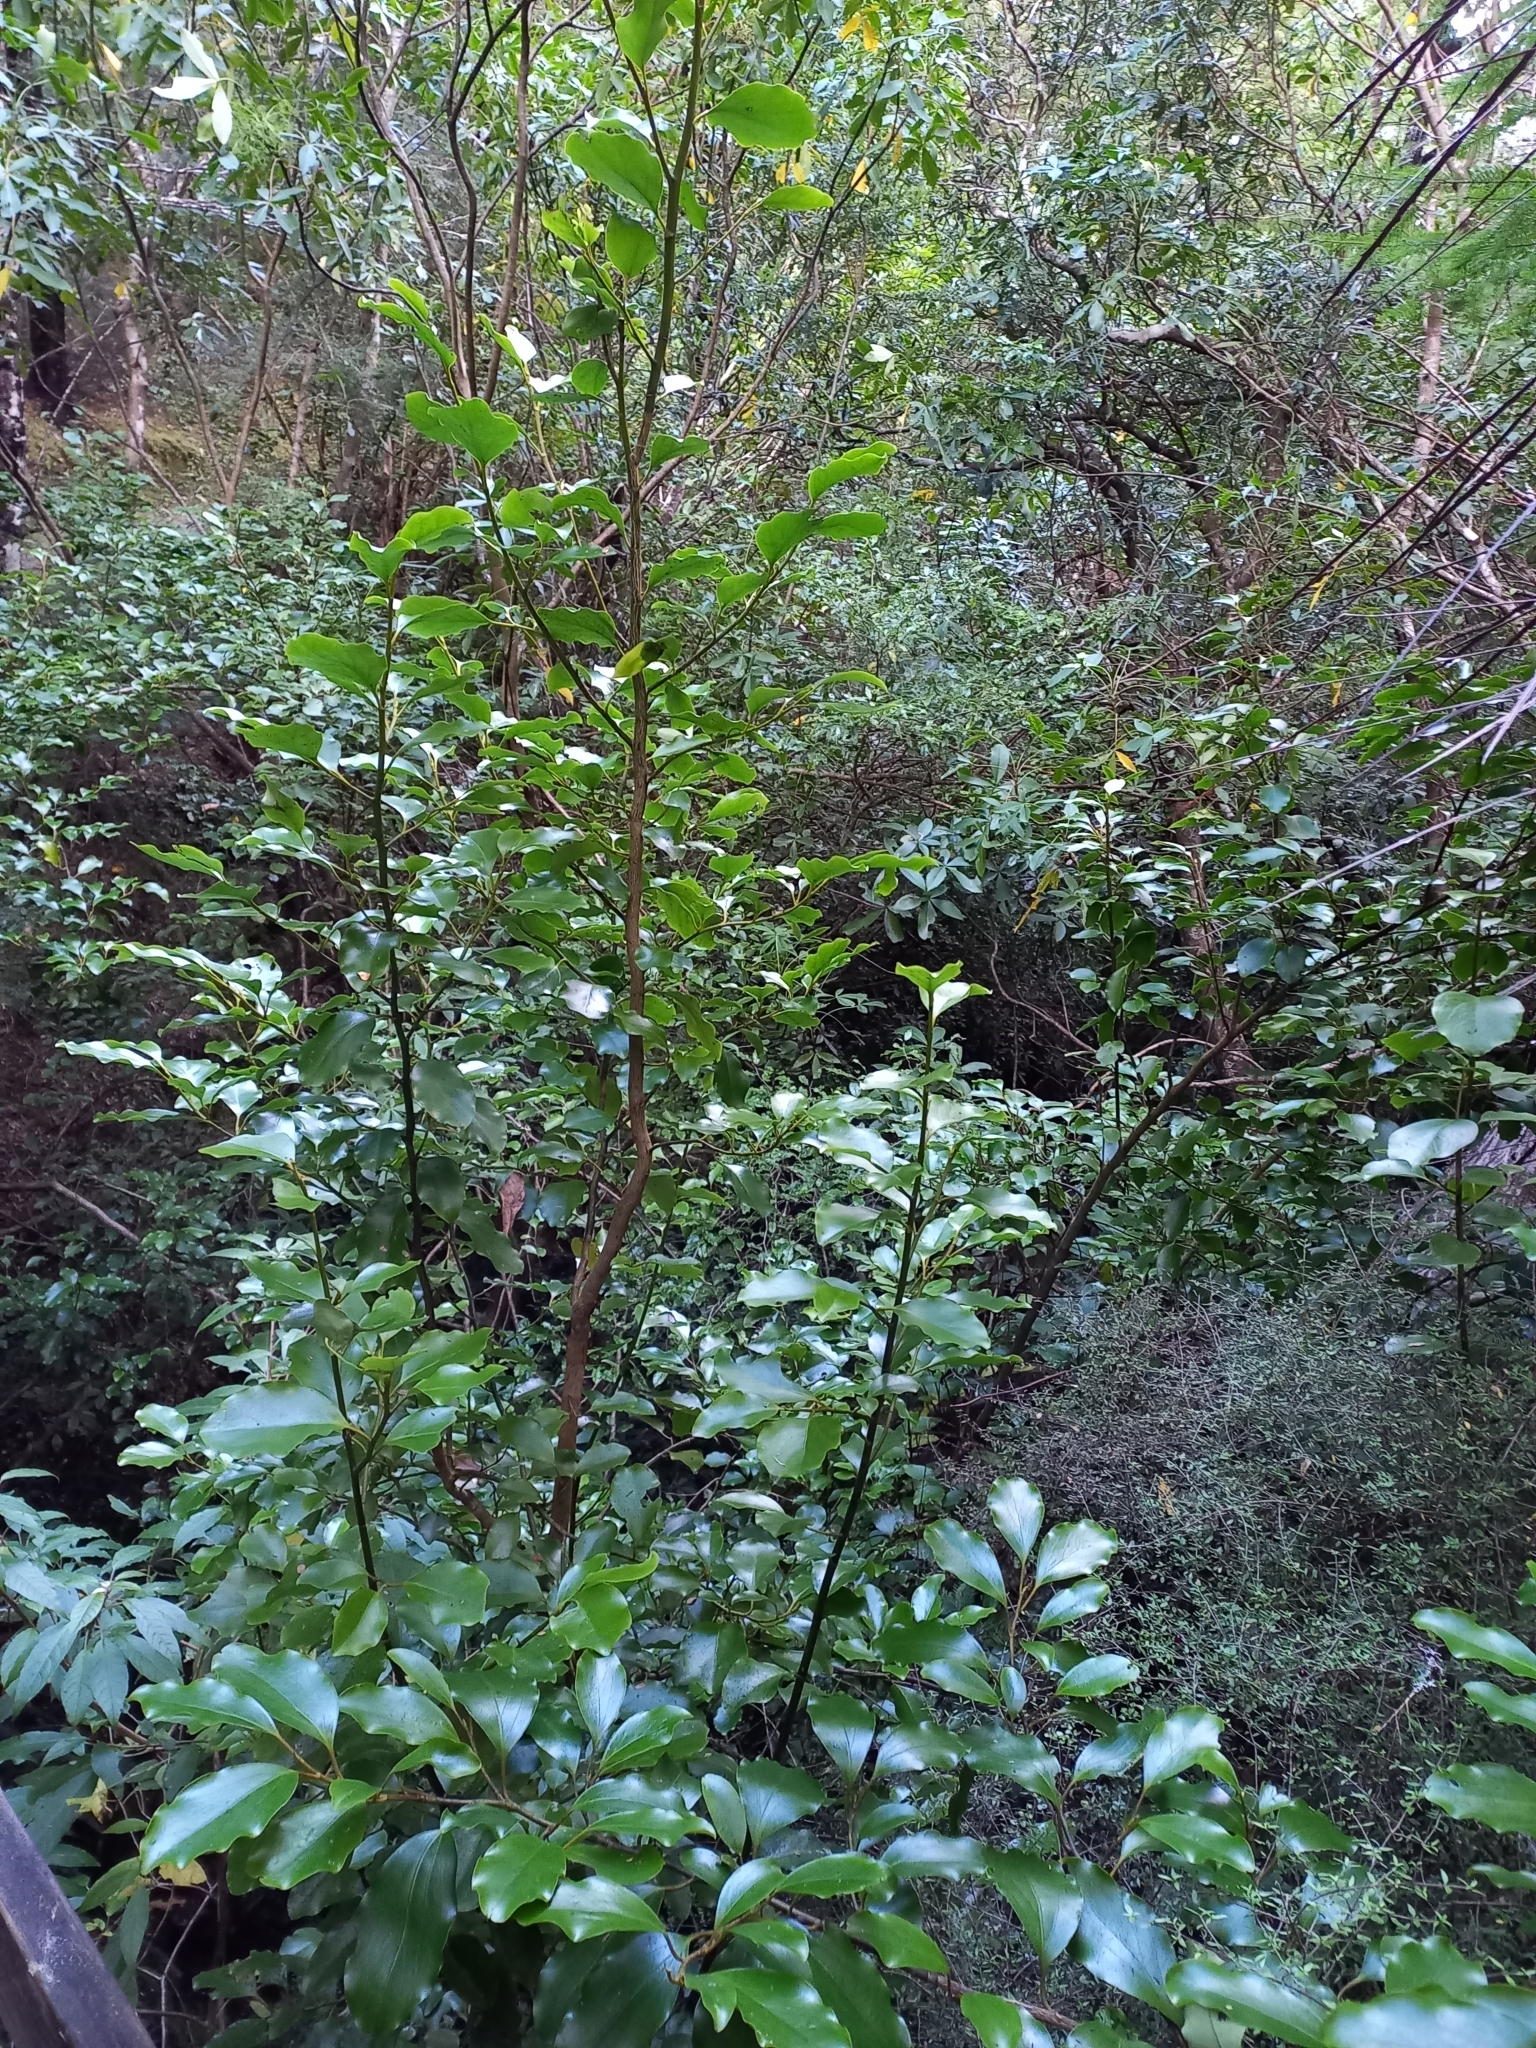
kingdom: Plantae
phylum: Tracheophyta
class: Magnoliopsida
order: Apiales
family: Griseliniaceae
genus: Griselinia
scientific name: Griselinia littoralis
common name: New zealand broadleaf
